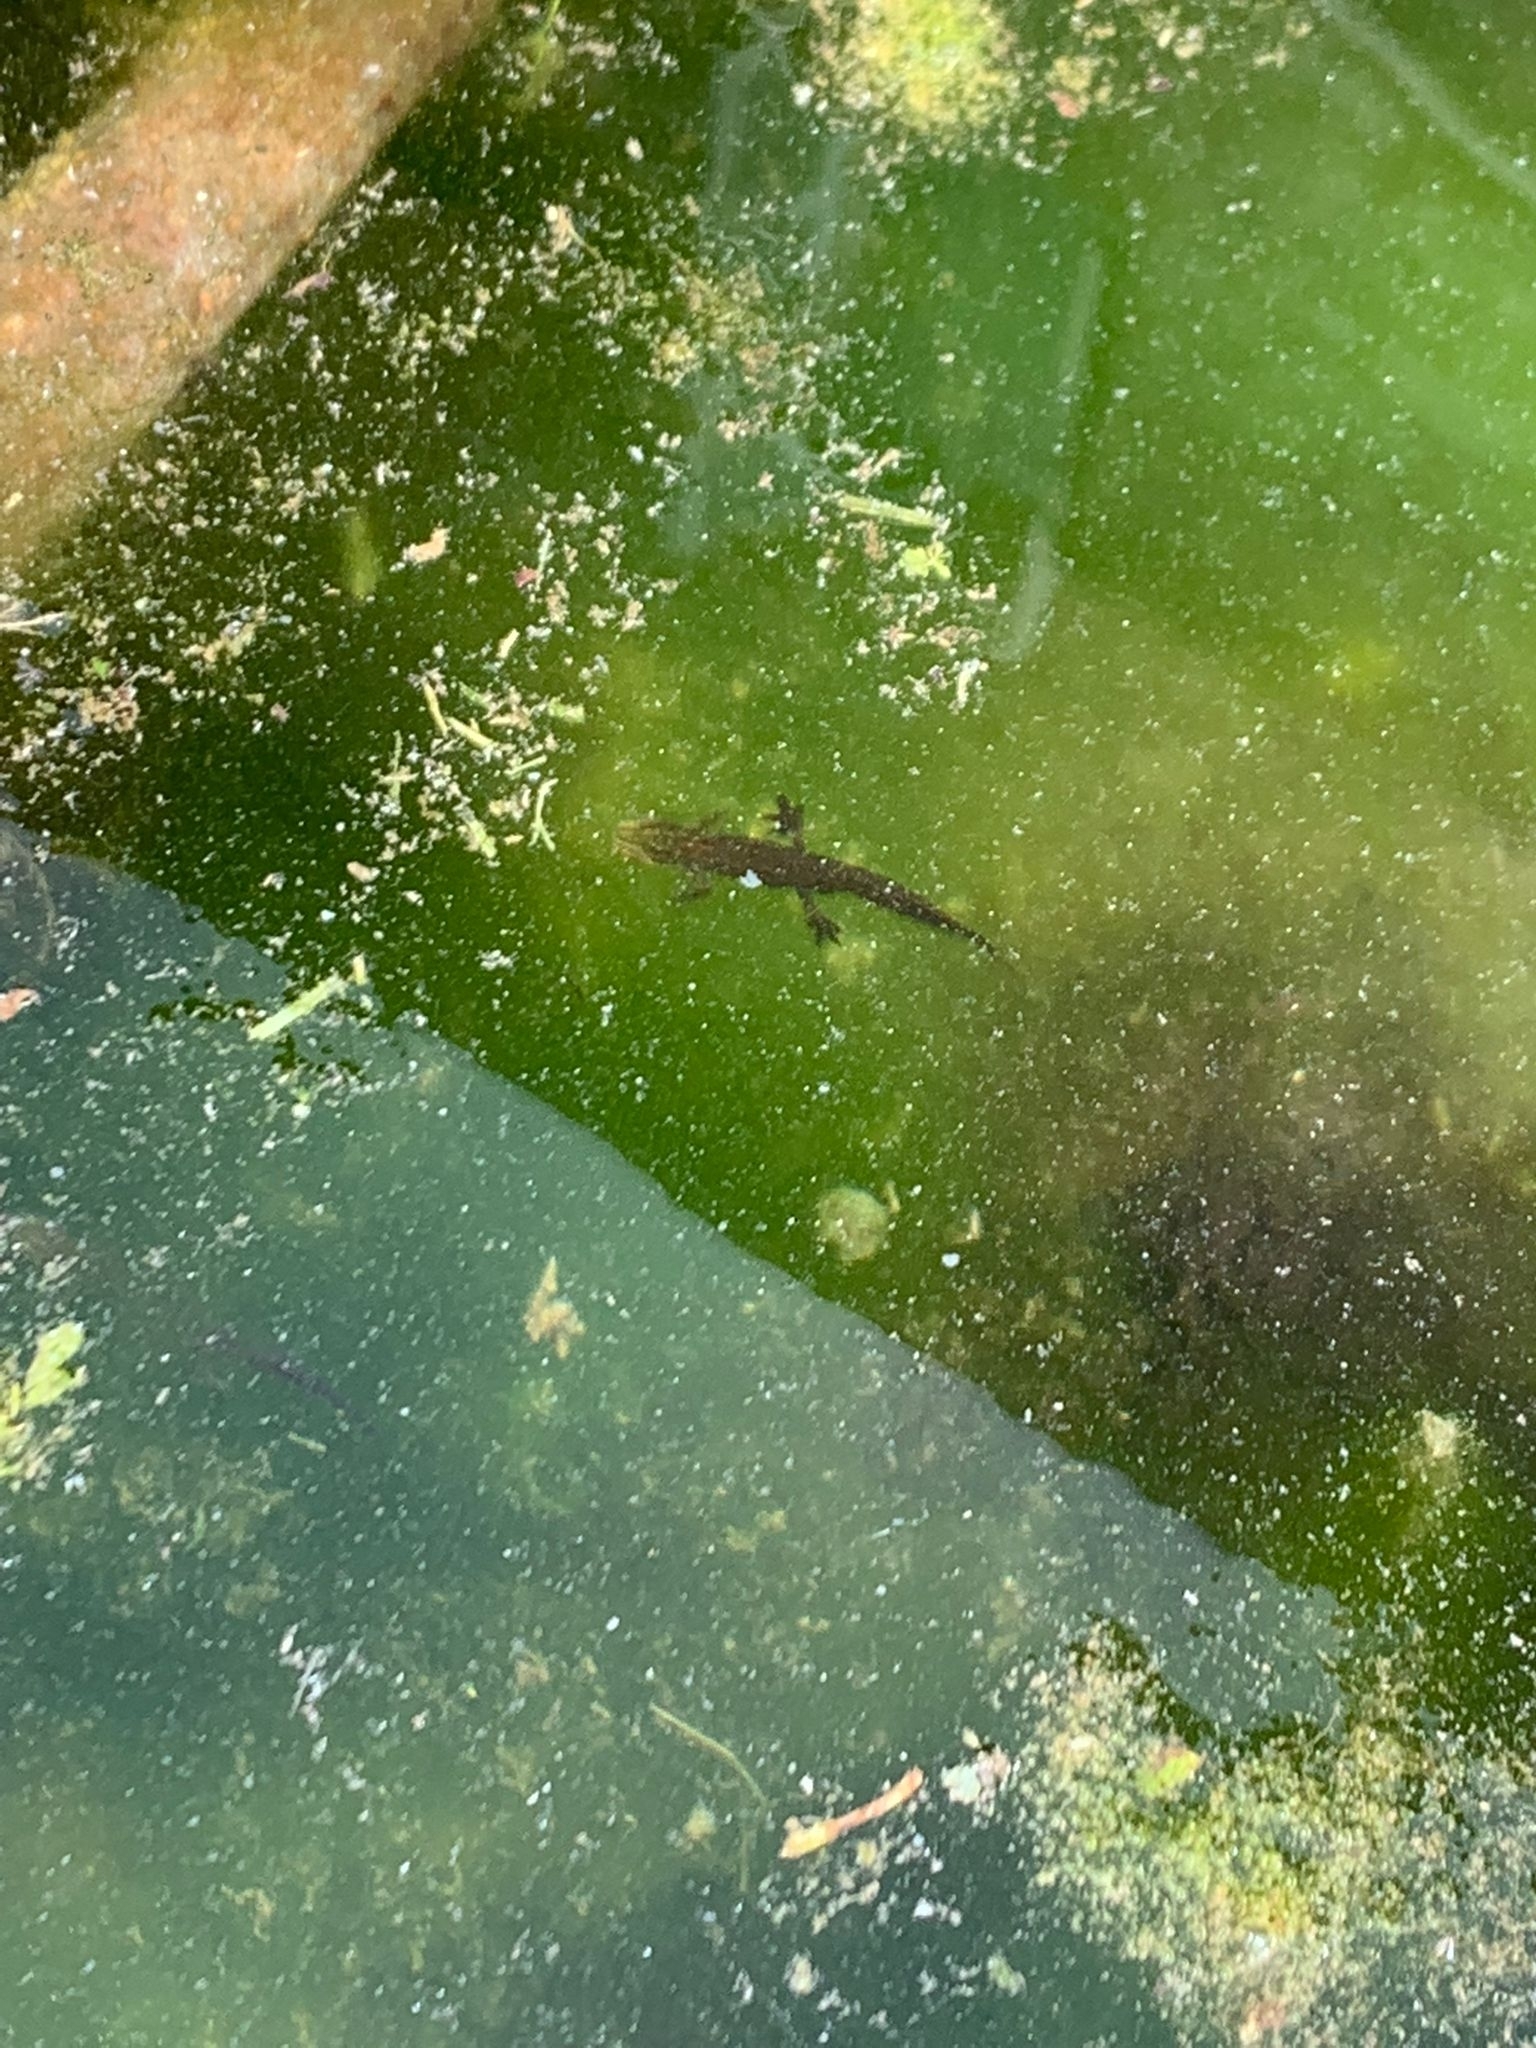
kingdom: Animalia
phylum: Chordata
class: Amphibia
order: Caudata
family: Salamandridae
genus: Lissotriton
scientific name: Lissotriton vulgaris
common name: Smooth newt
